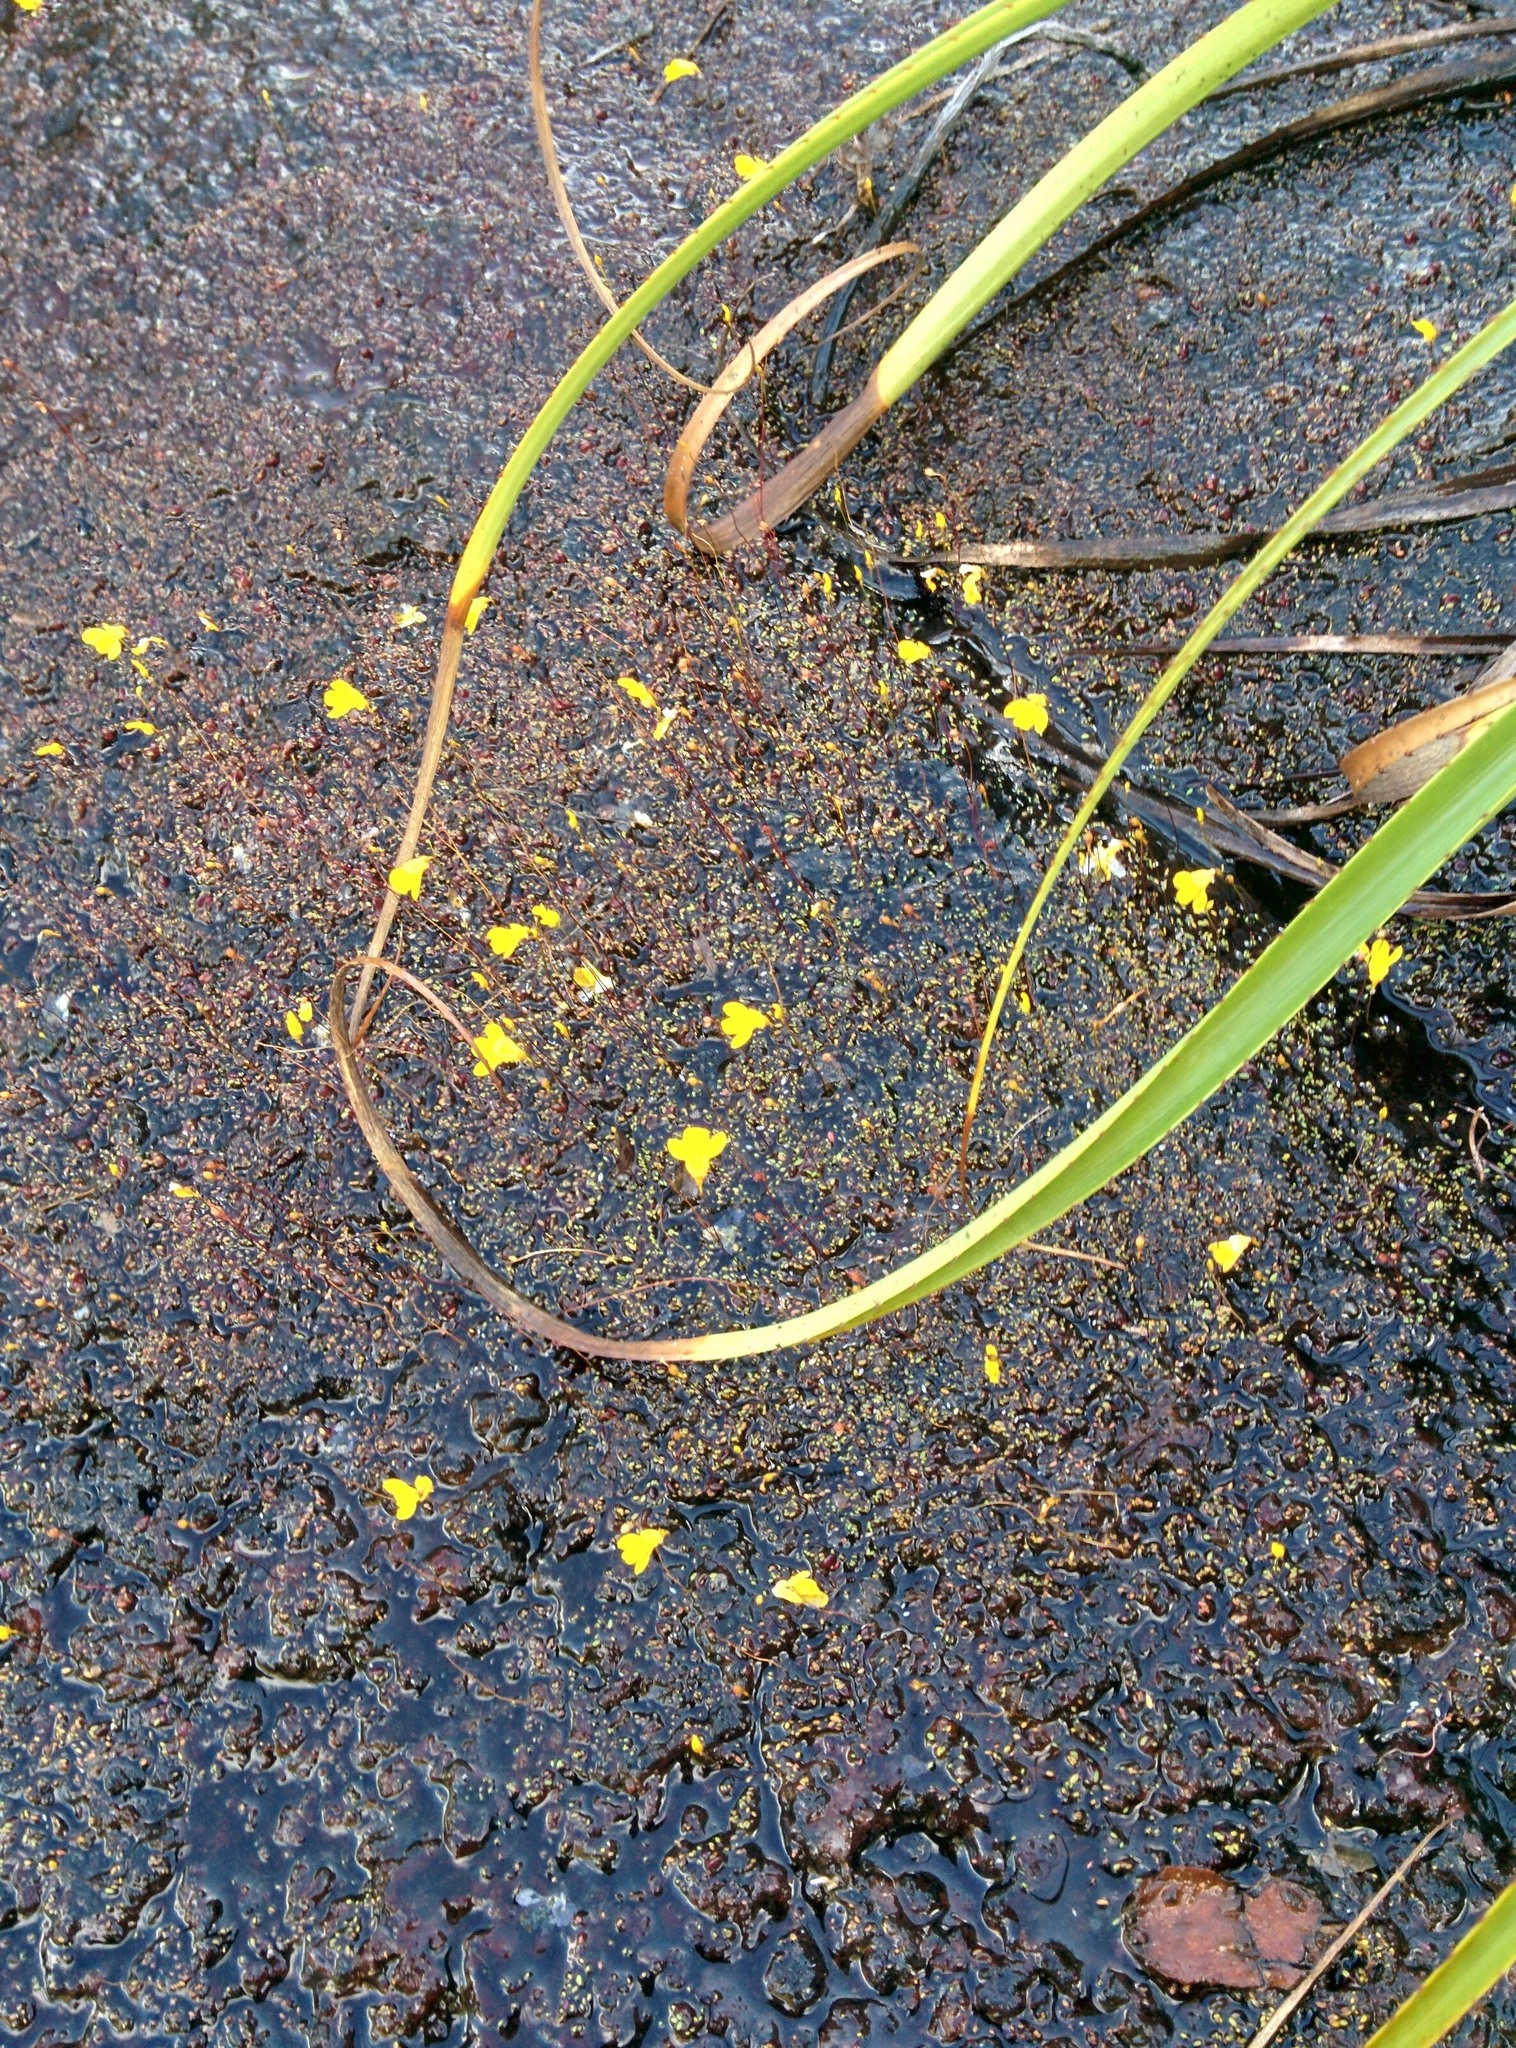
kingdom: Plantae
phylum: Tracheophyta
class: Magnoliopsida
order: Lamiales
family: Lentibulariaceae
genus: Utricularia
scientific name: Utricularia choristotheca
